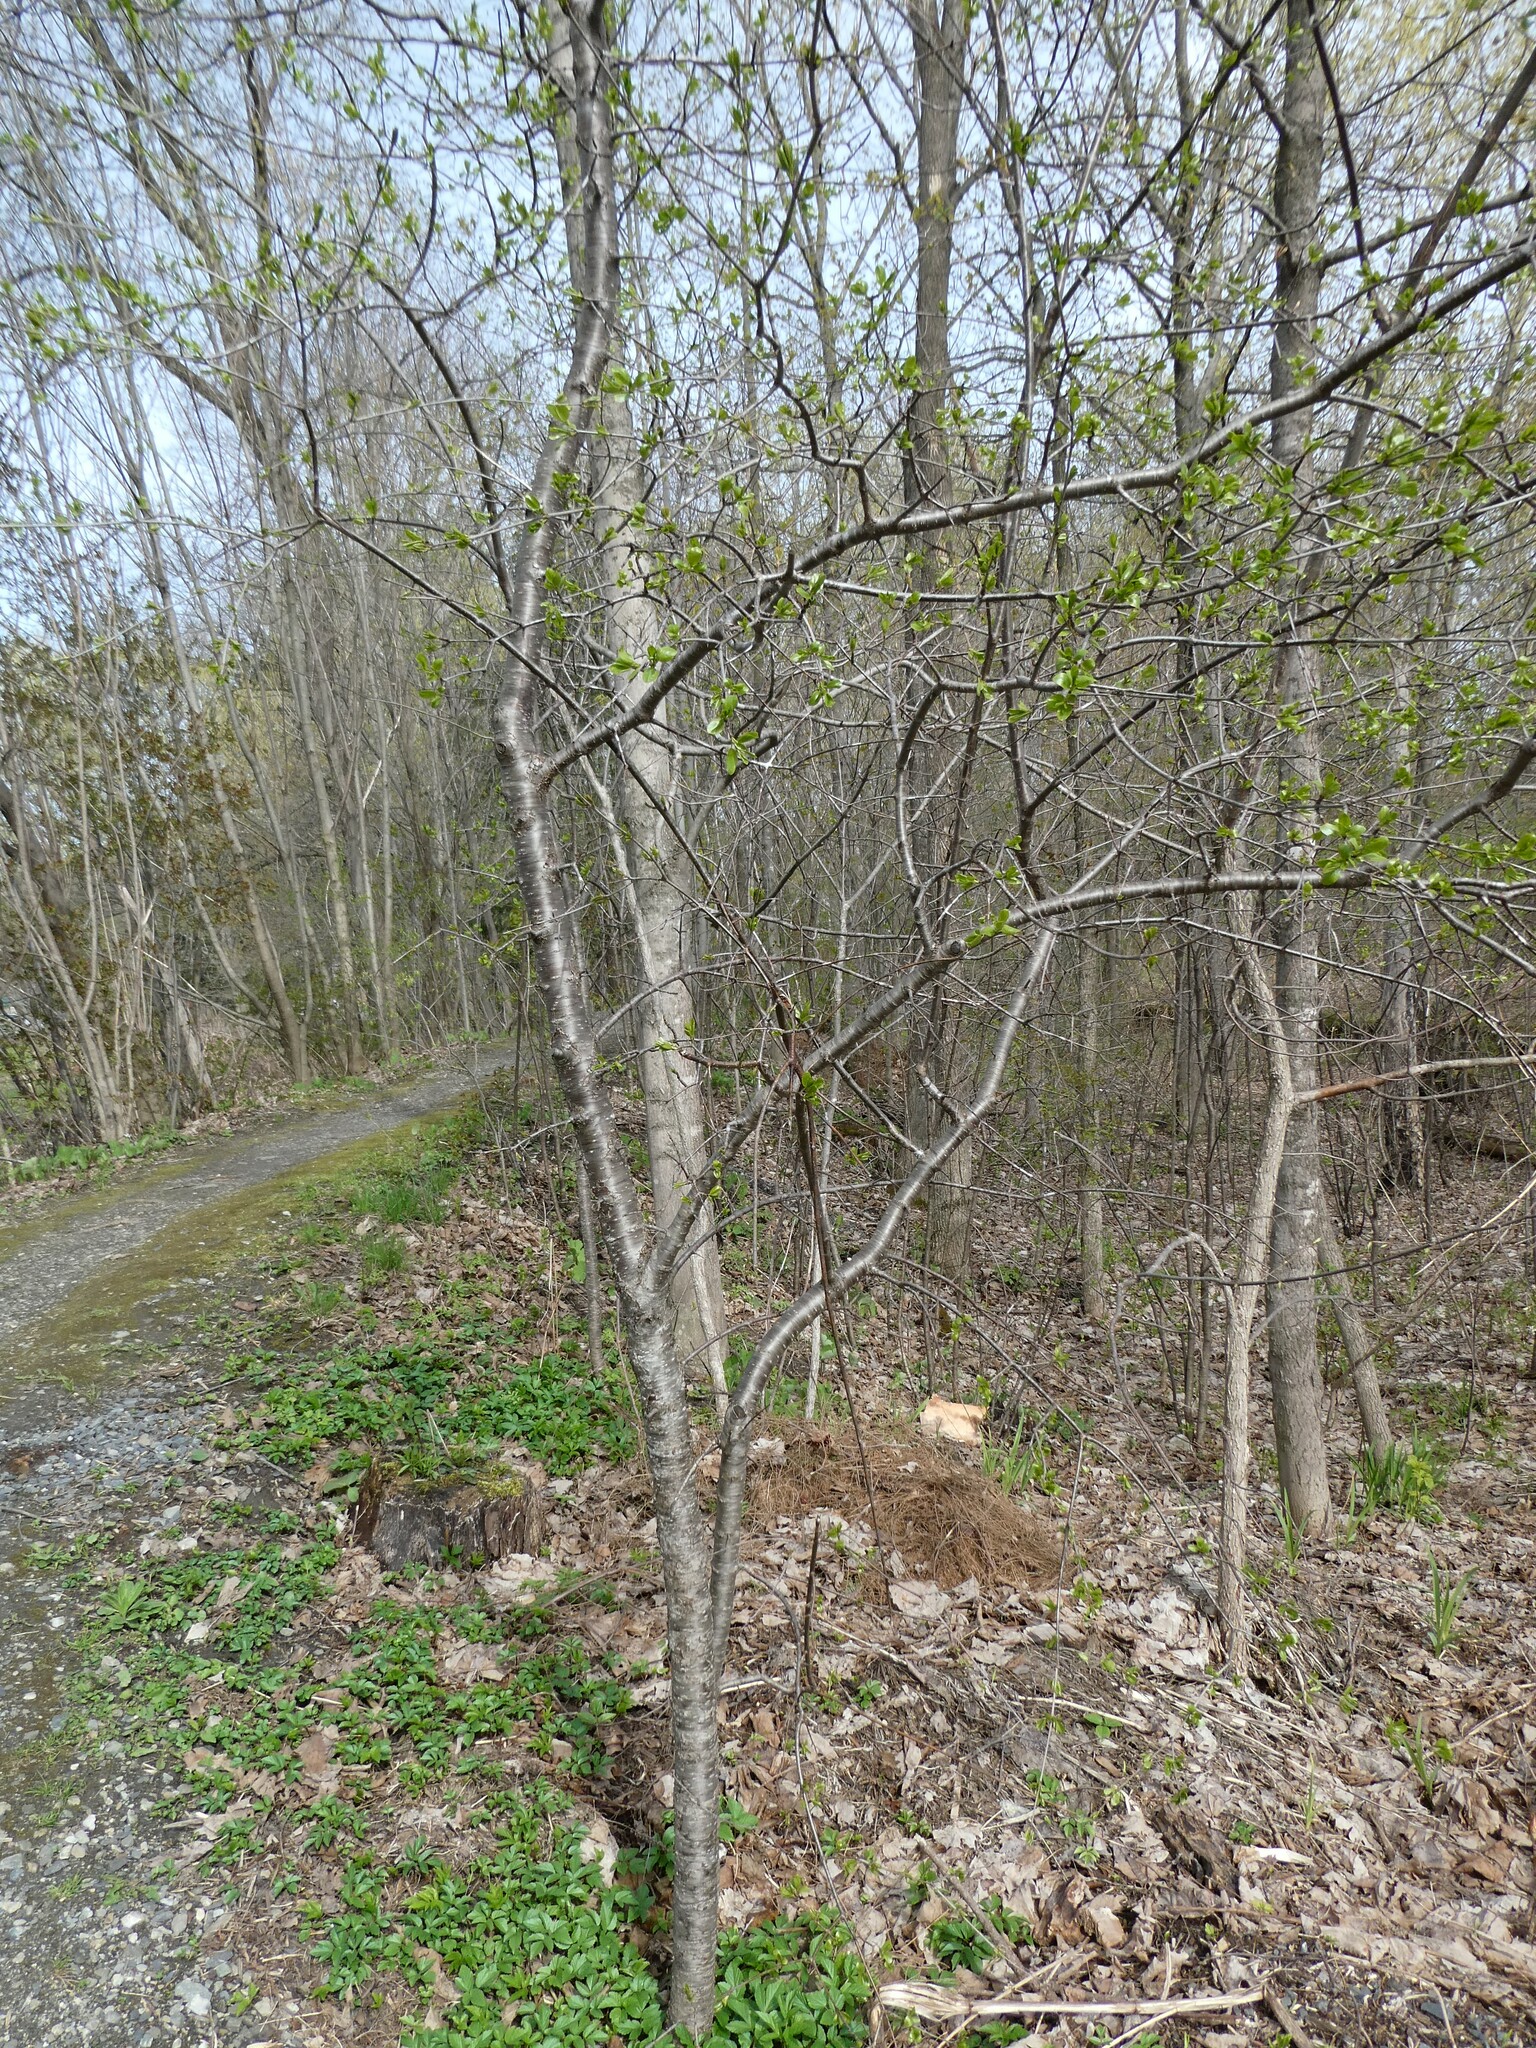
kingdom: Plantae
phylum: Tracheophyta
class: Magnoliopsida
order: Rosales
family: Rhamnaceae
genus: Rhamnus
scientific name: Rhamnus cathartica
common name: Common buckthorn
